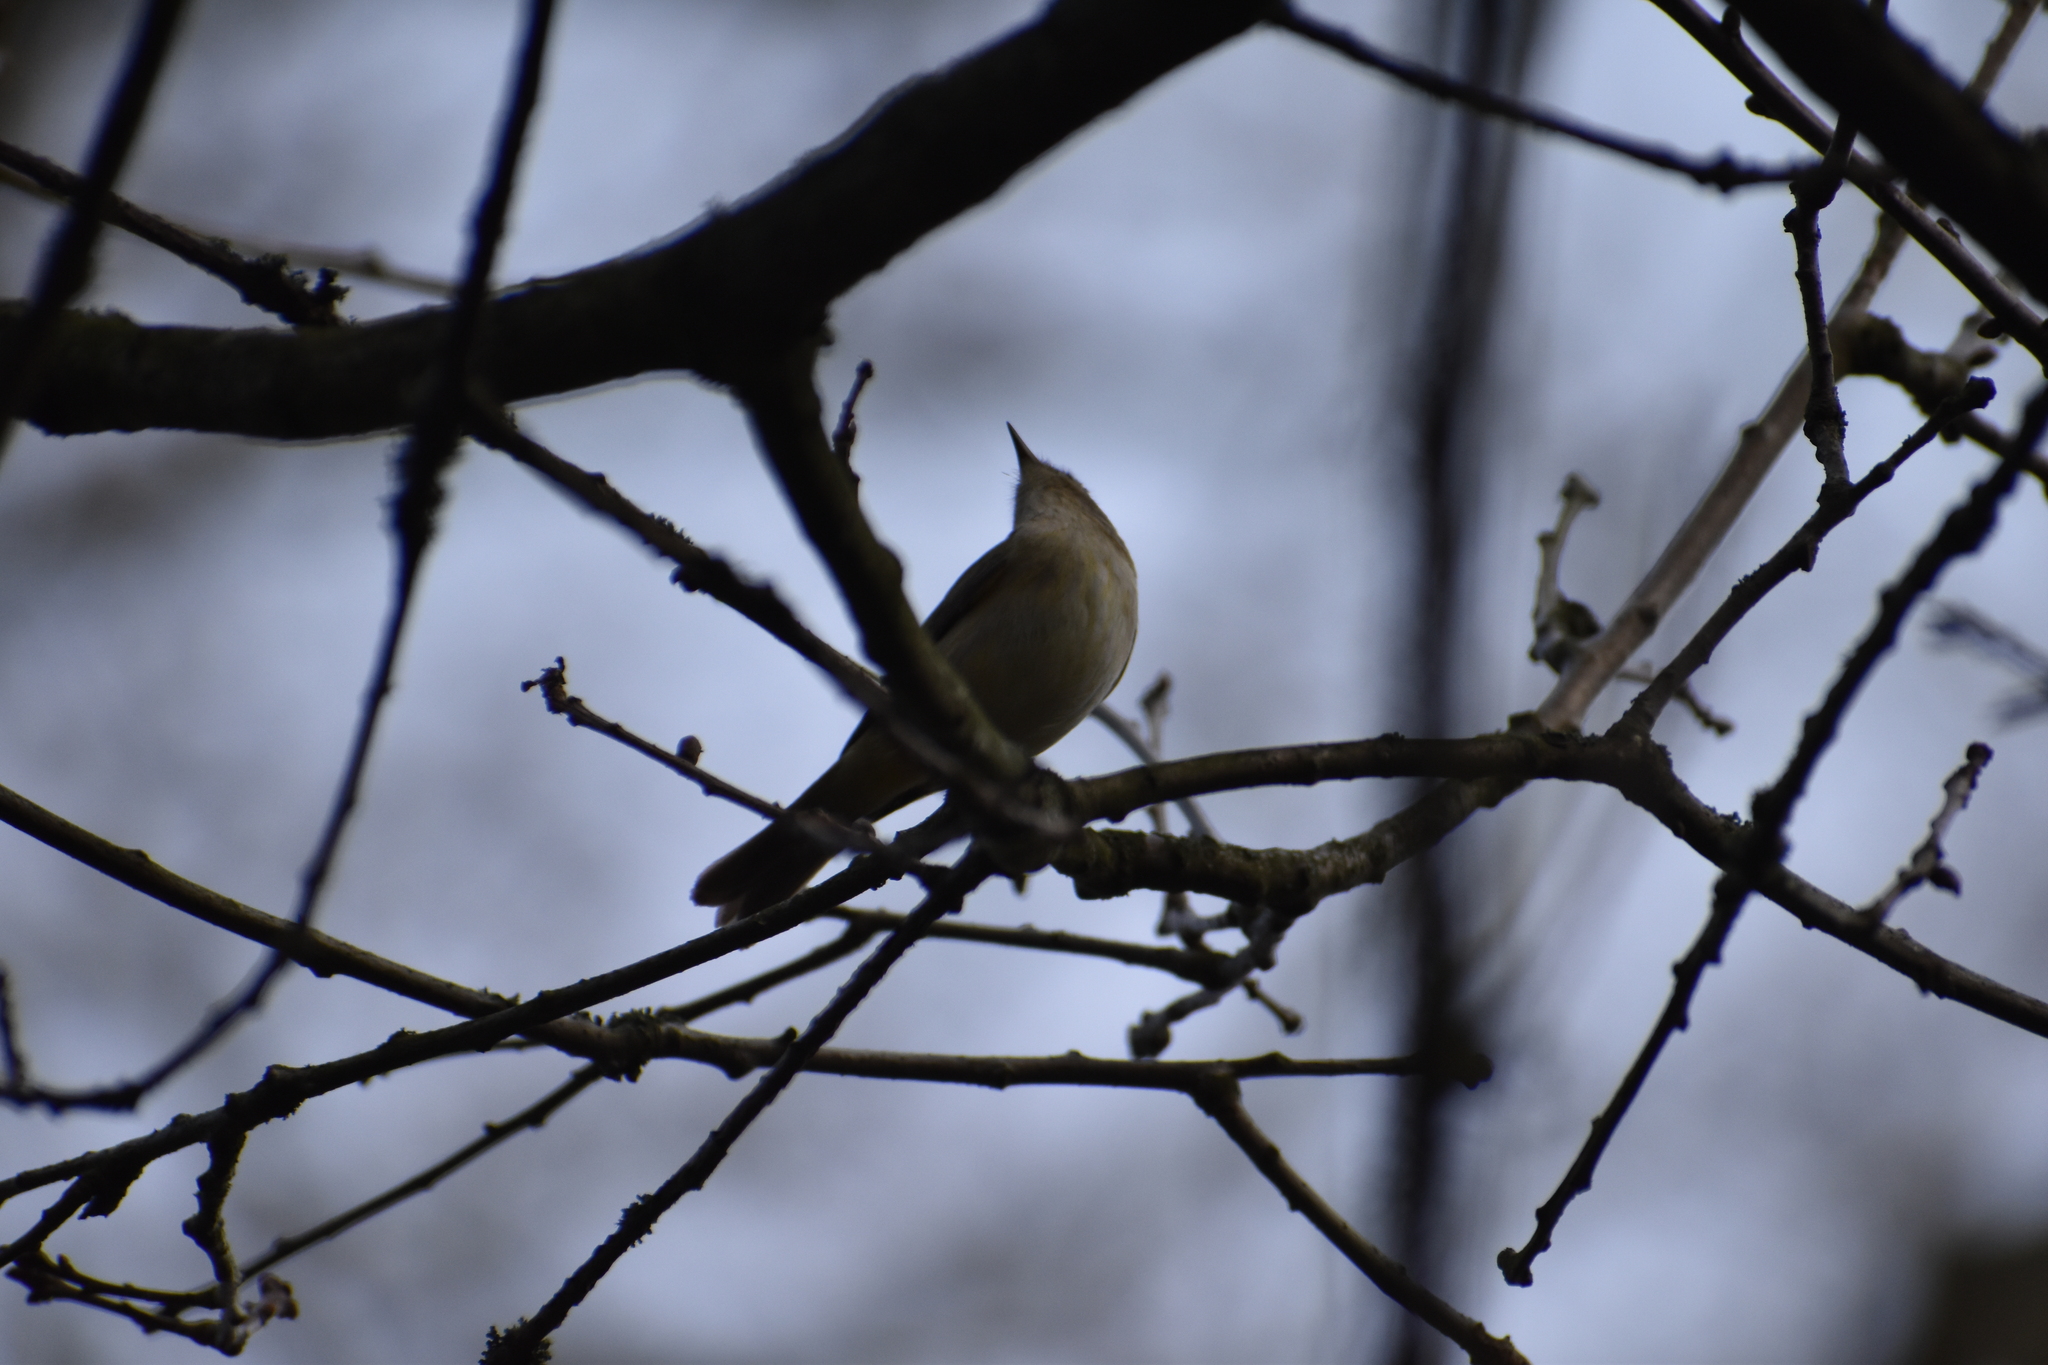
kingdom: Animalia
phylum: Chordata
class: Aves
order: Passeriformes
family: Phylloscopidae
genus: Phylloscopus
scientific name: Phylloscopus collybita
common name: Common chiffchaff
